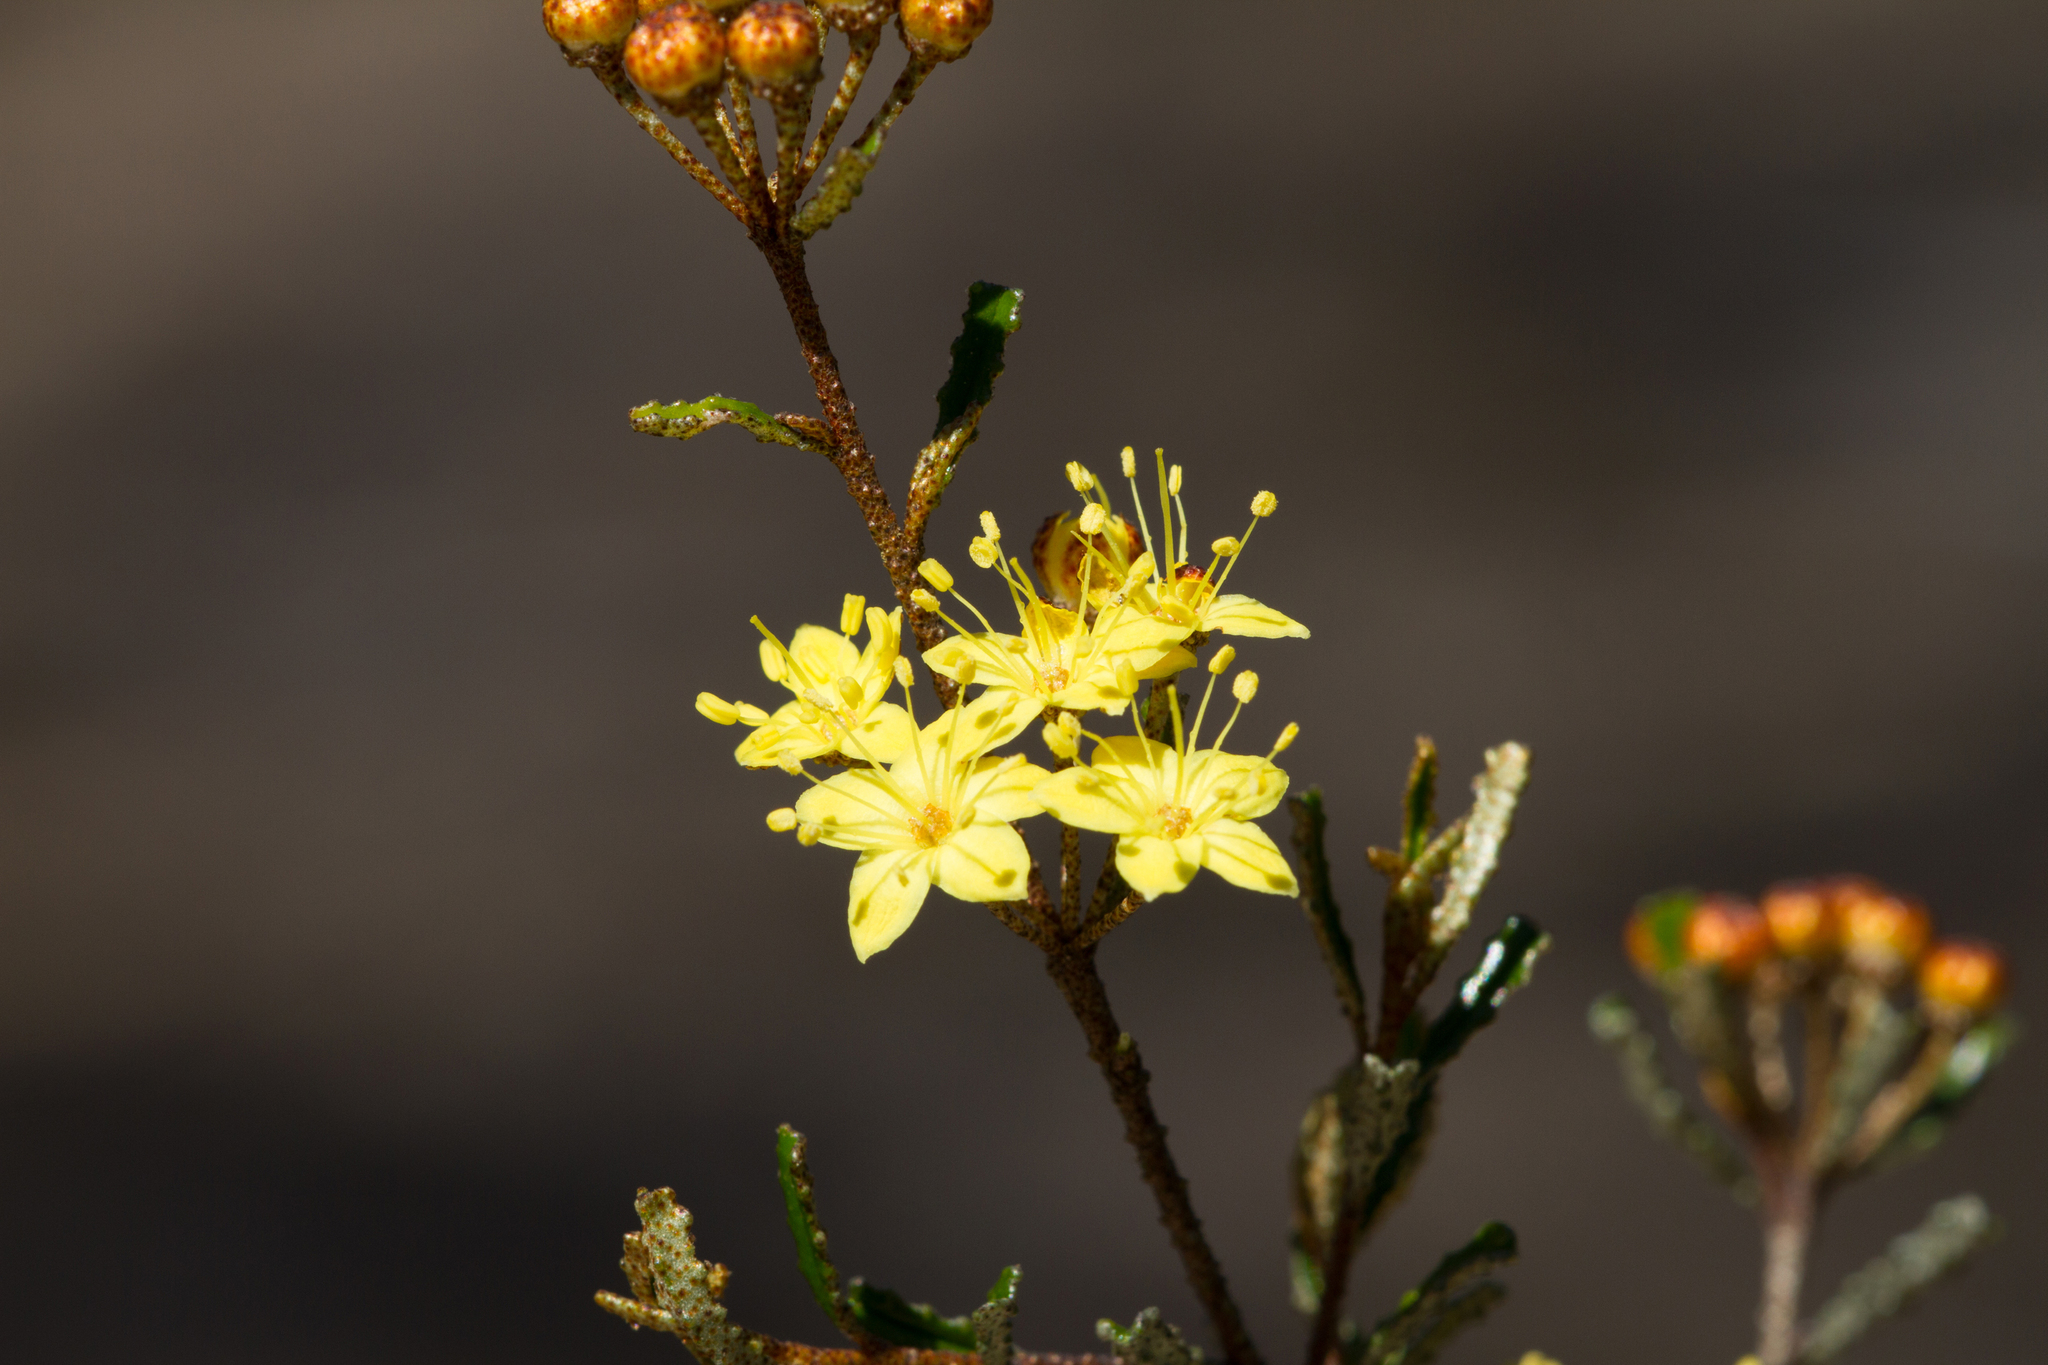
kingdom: Plantae
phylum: Tracheophyta
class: Magnoliopsida
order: Sapindales
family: Rutaceae
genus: Phebalium
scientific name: Phebalium bullatum
